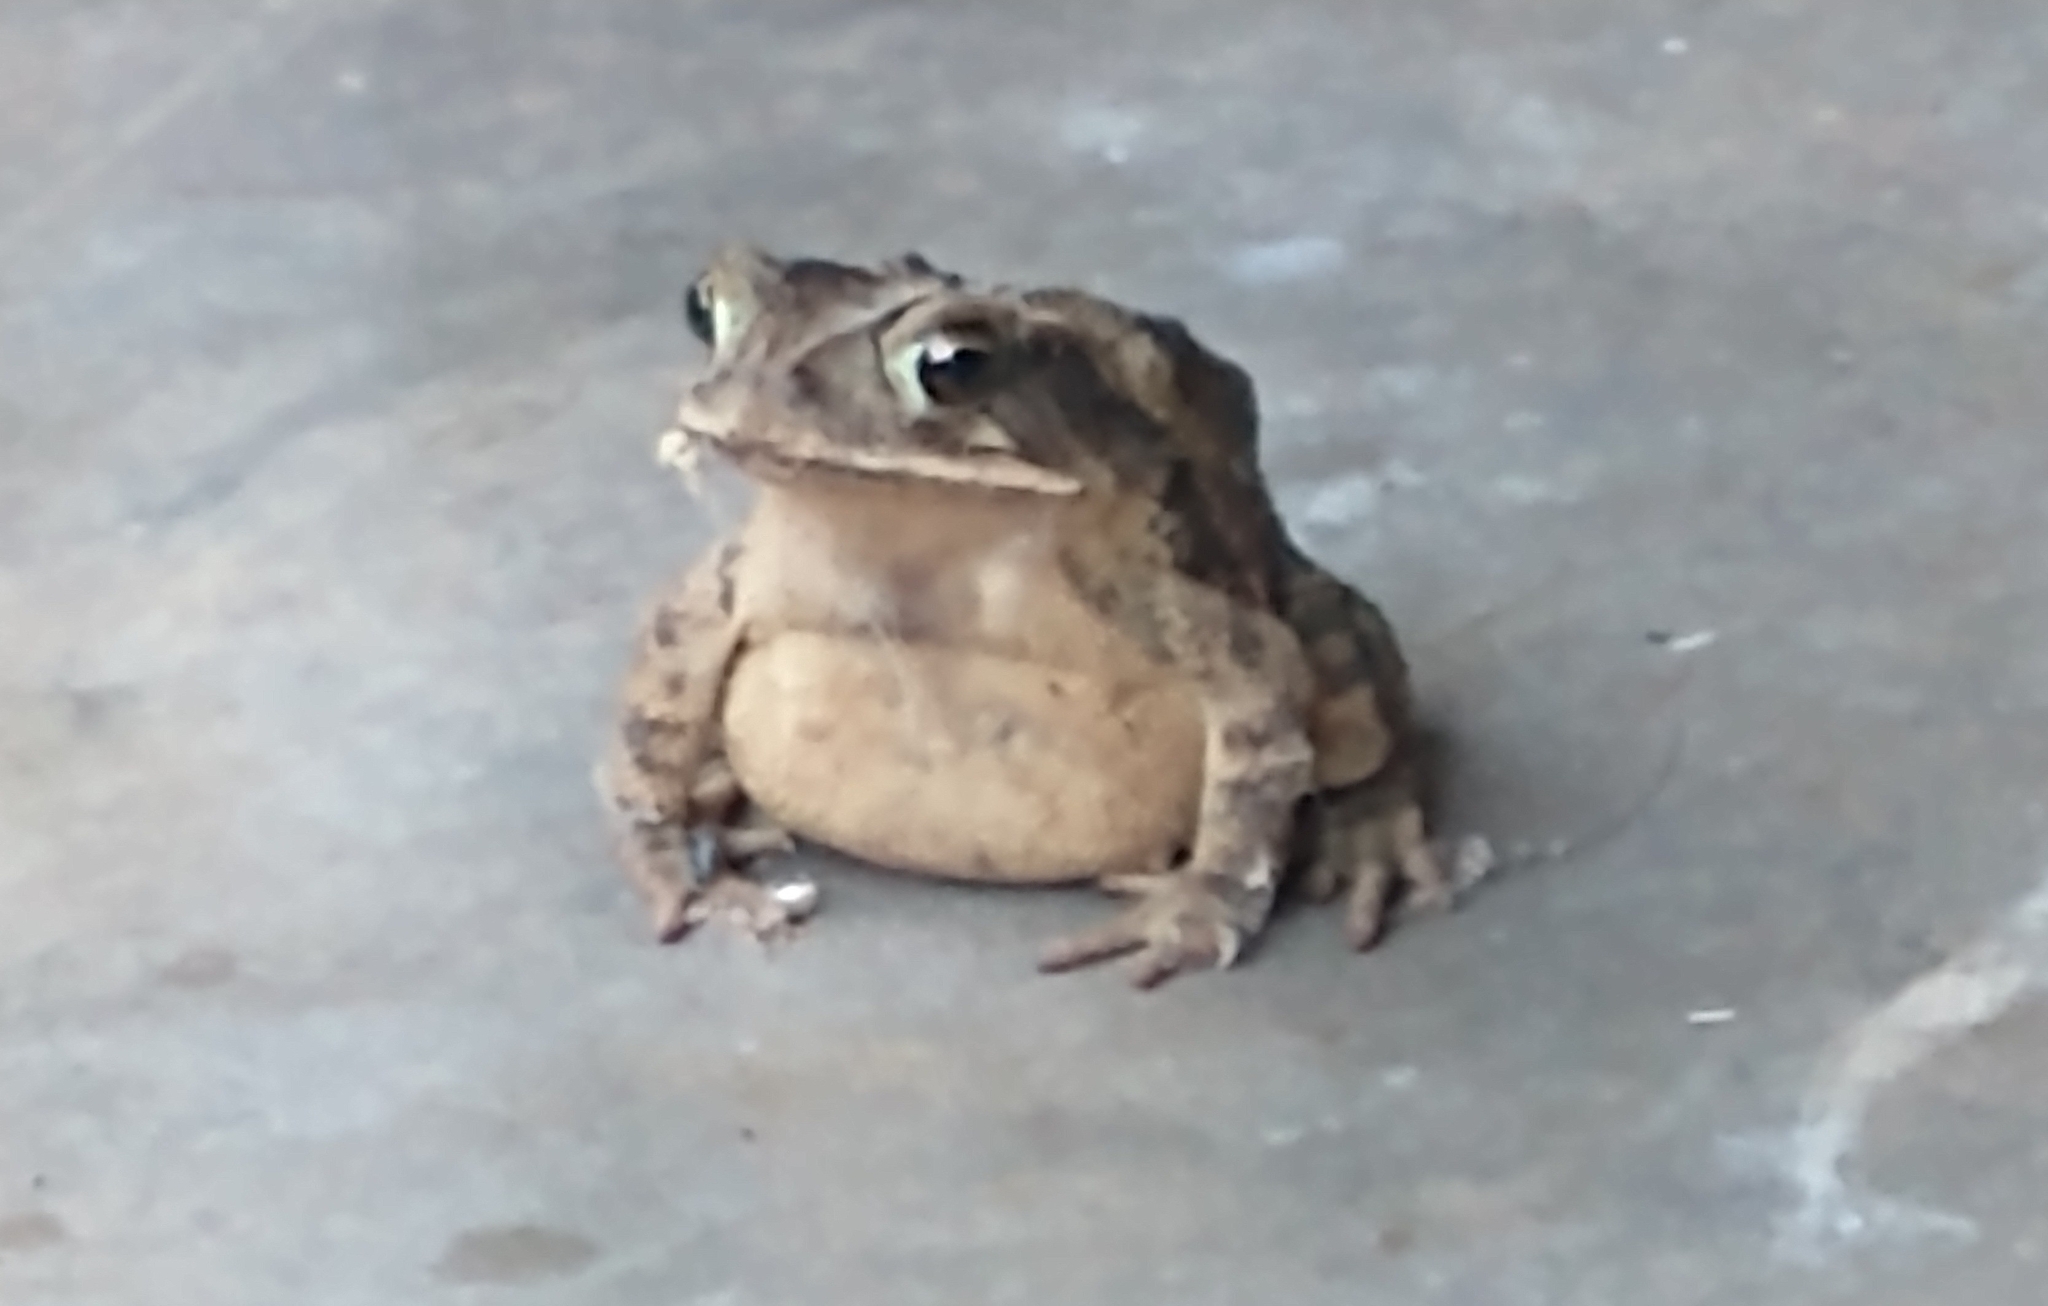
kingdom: Animalia
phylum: Chordata
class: Amphibia
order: Anura
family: Bufonidae
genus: Incilius
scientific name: Incilius nebulifer
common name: Gulf coast toad
